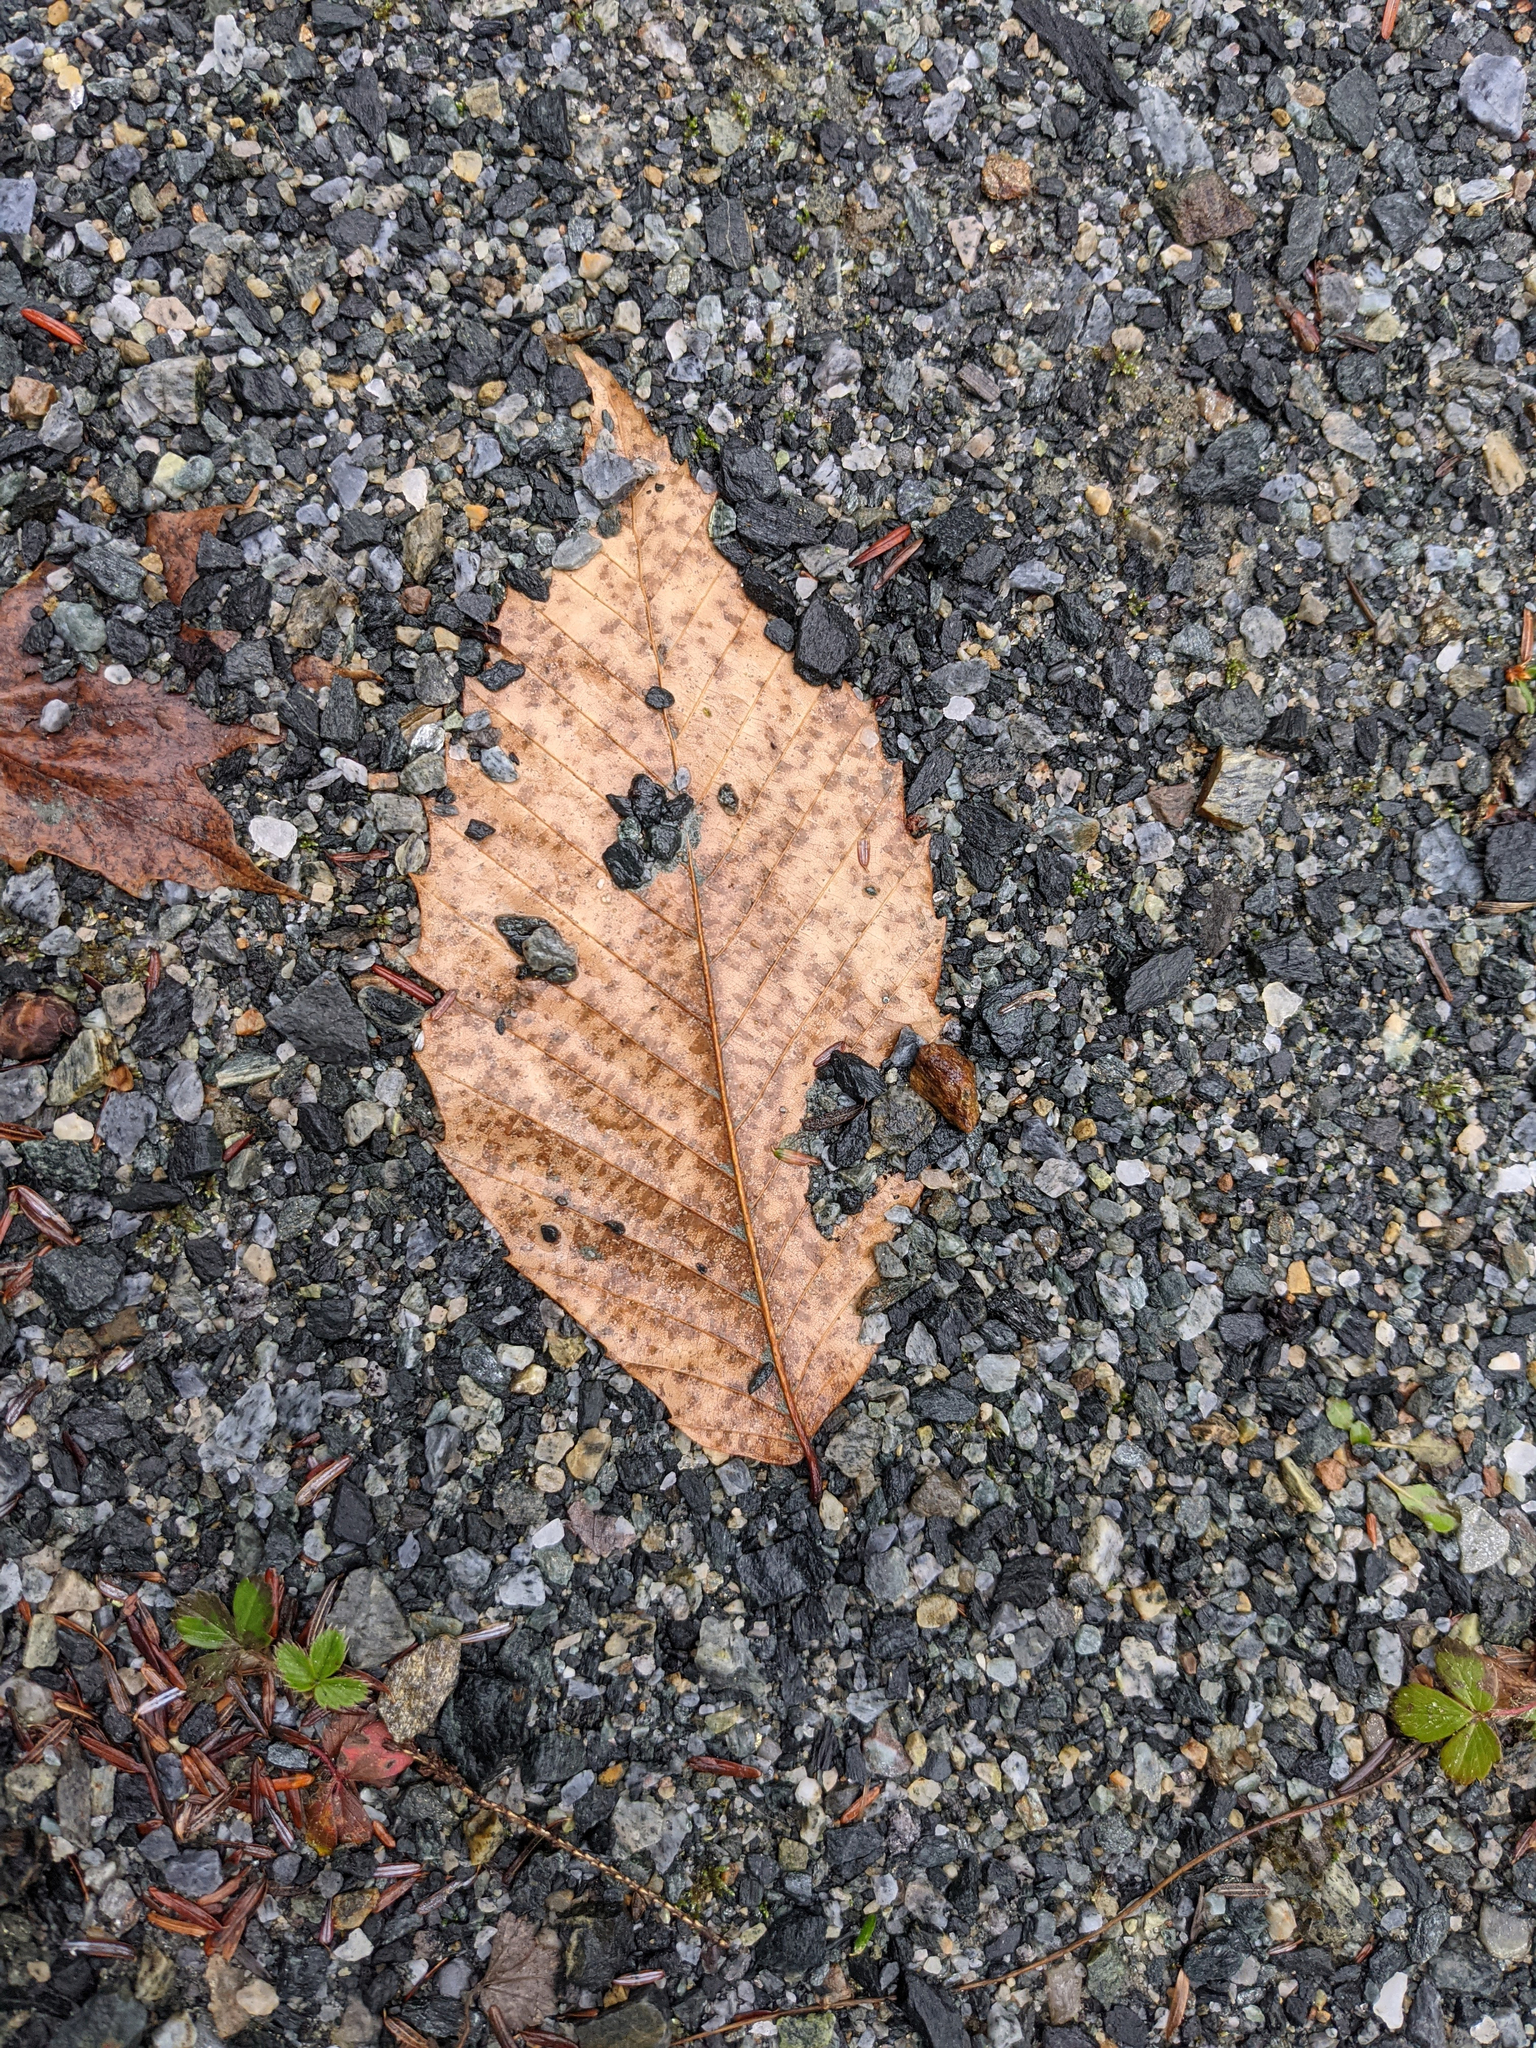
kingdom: Plantae
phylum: Tracheophyta
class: Magnoliopsida
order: Fagales
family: Fagaceae
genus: Fagus
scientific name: Fagus grandifolia
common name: American beech
